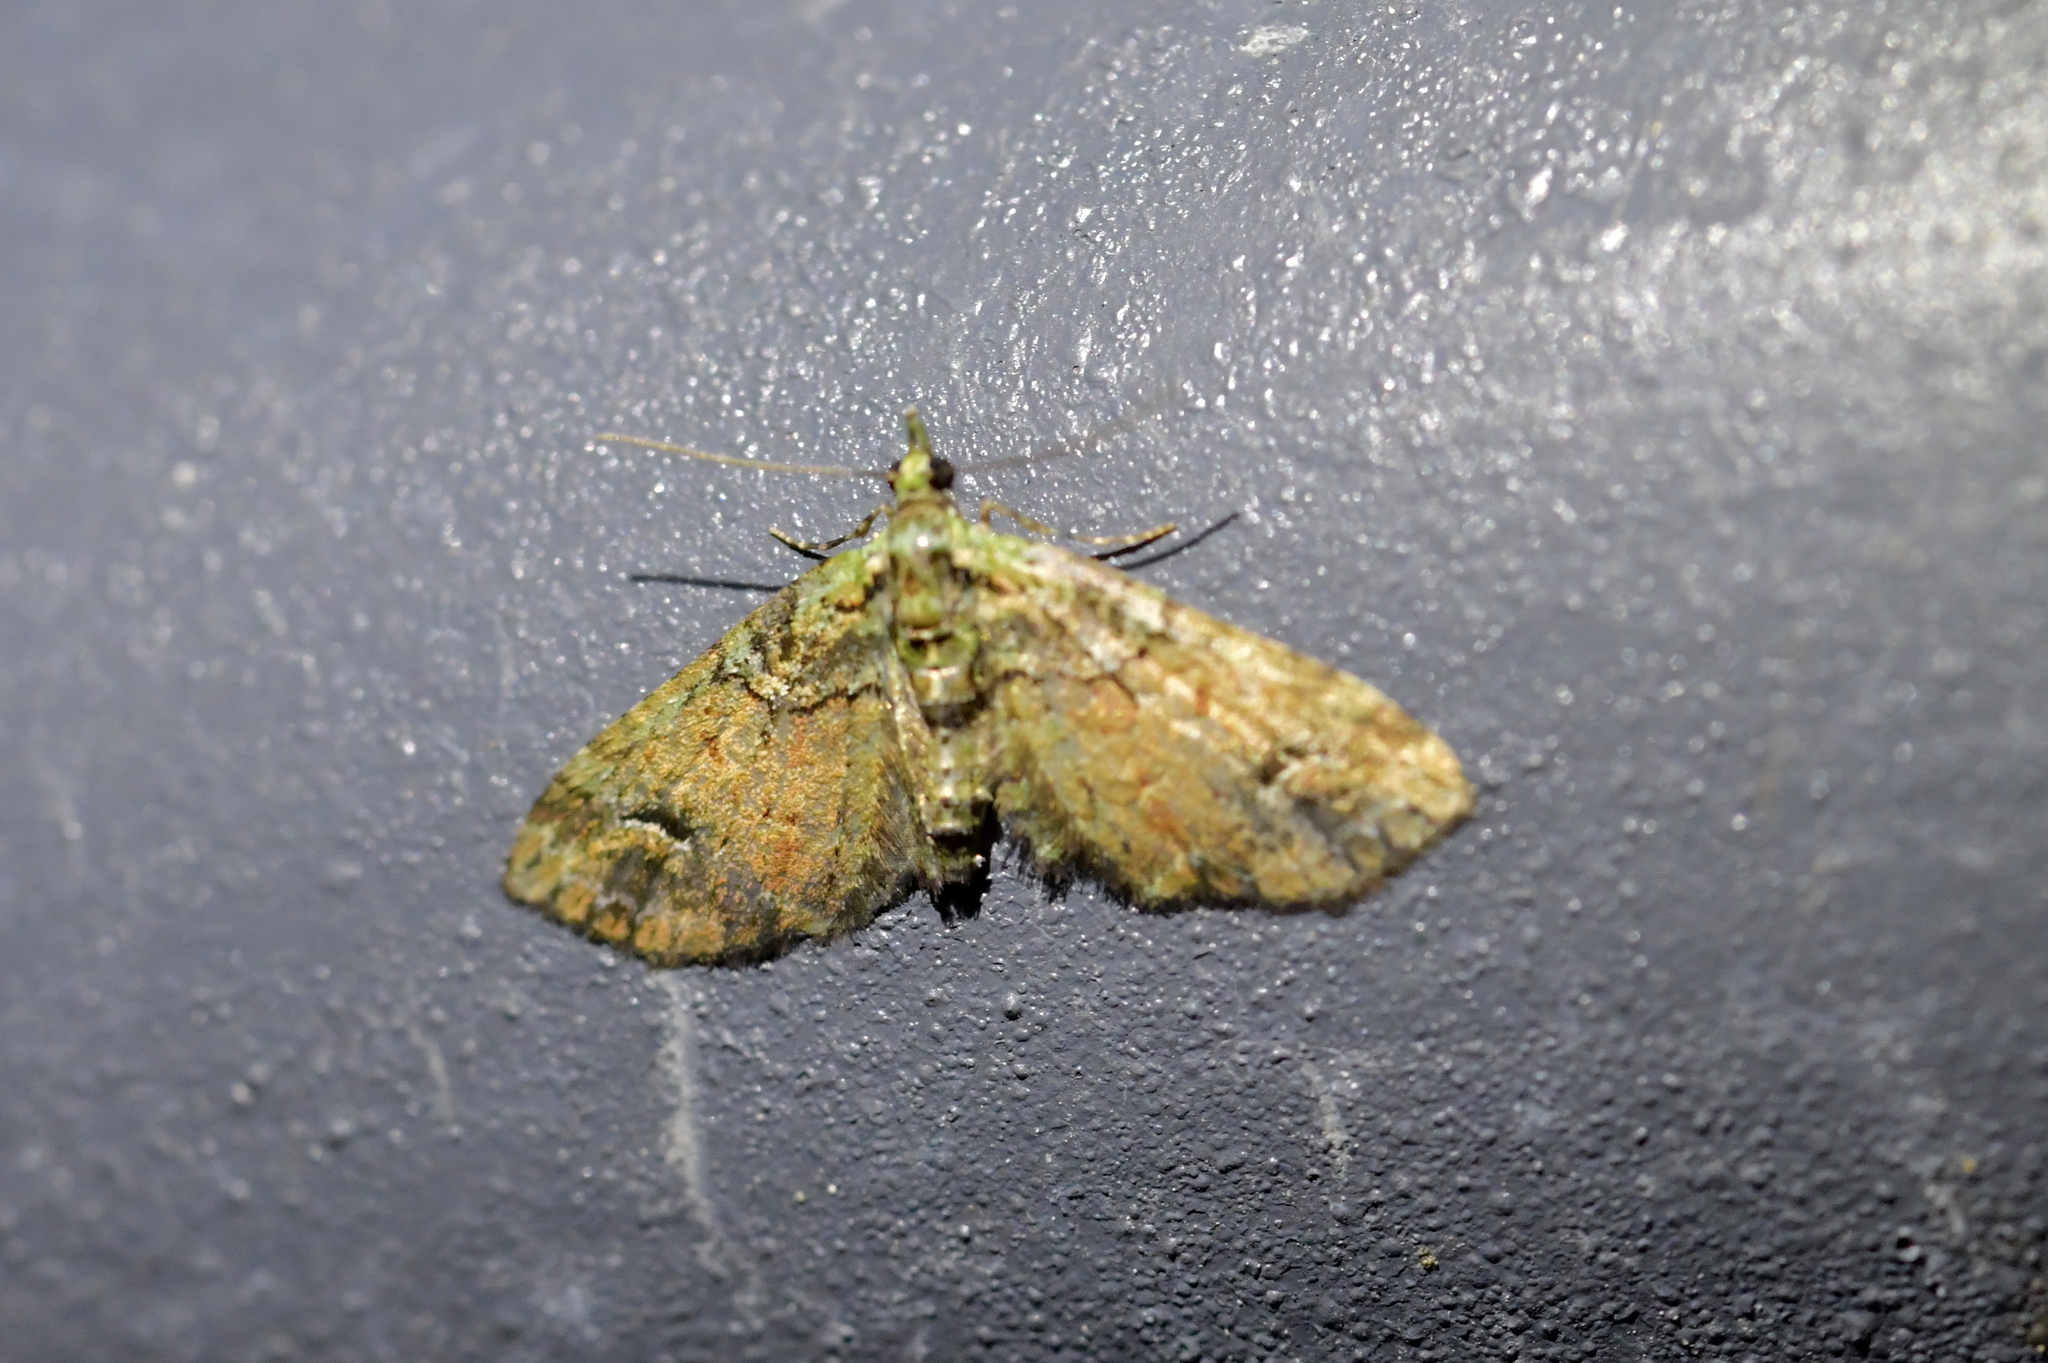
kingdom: Animalia
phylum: Arthropoda
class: Insecta
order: Lepidoptera
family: Geometridae
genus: Idaea
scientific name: Idaea mutanda
